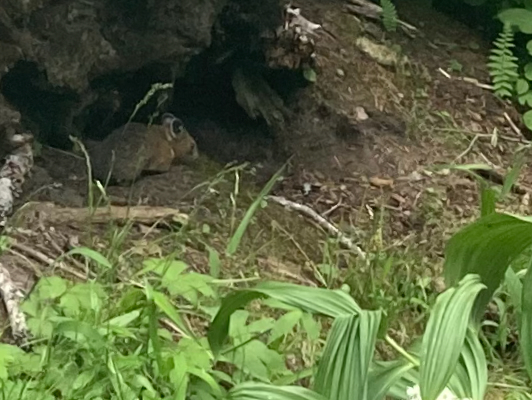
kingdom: Animalia
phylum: Chordata
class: Mammalia
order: Lagomorpha
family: Ochotonidae
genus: Ochotona
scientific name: Ochotona princeps
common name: American pika
